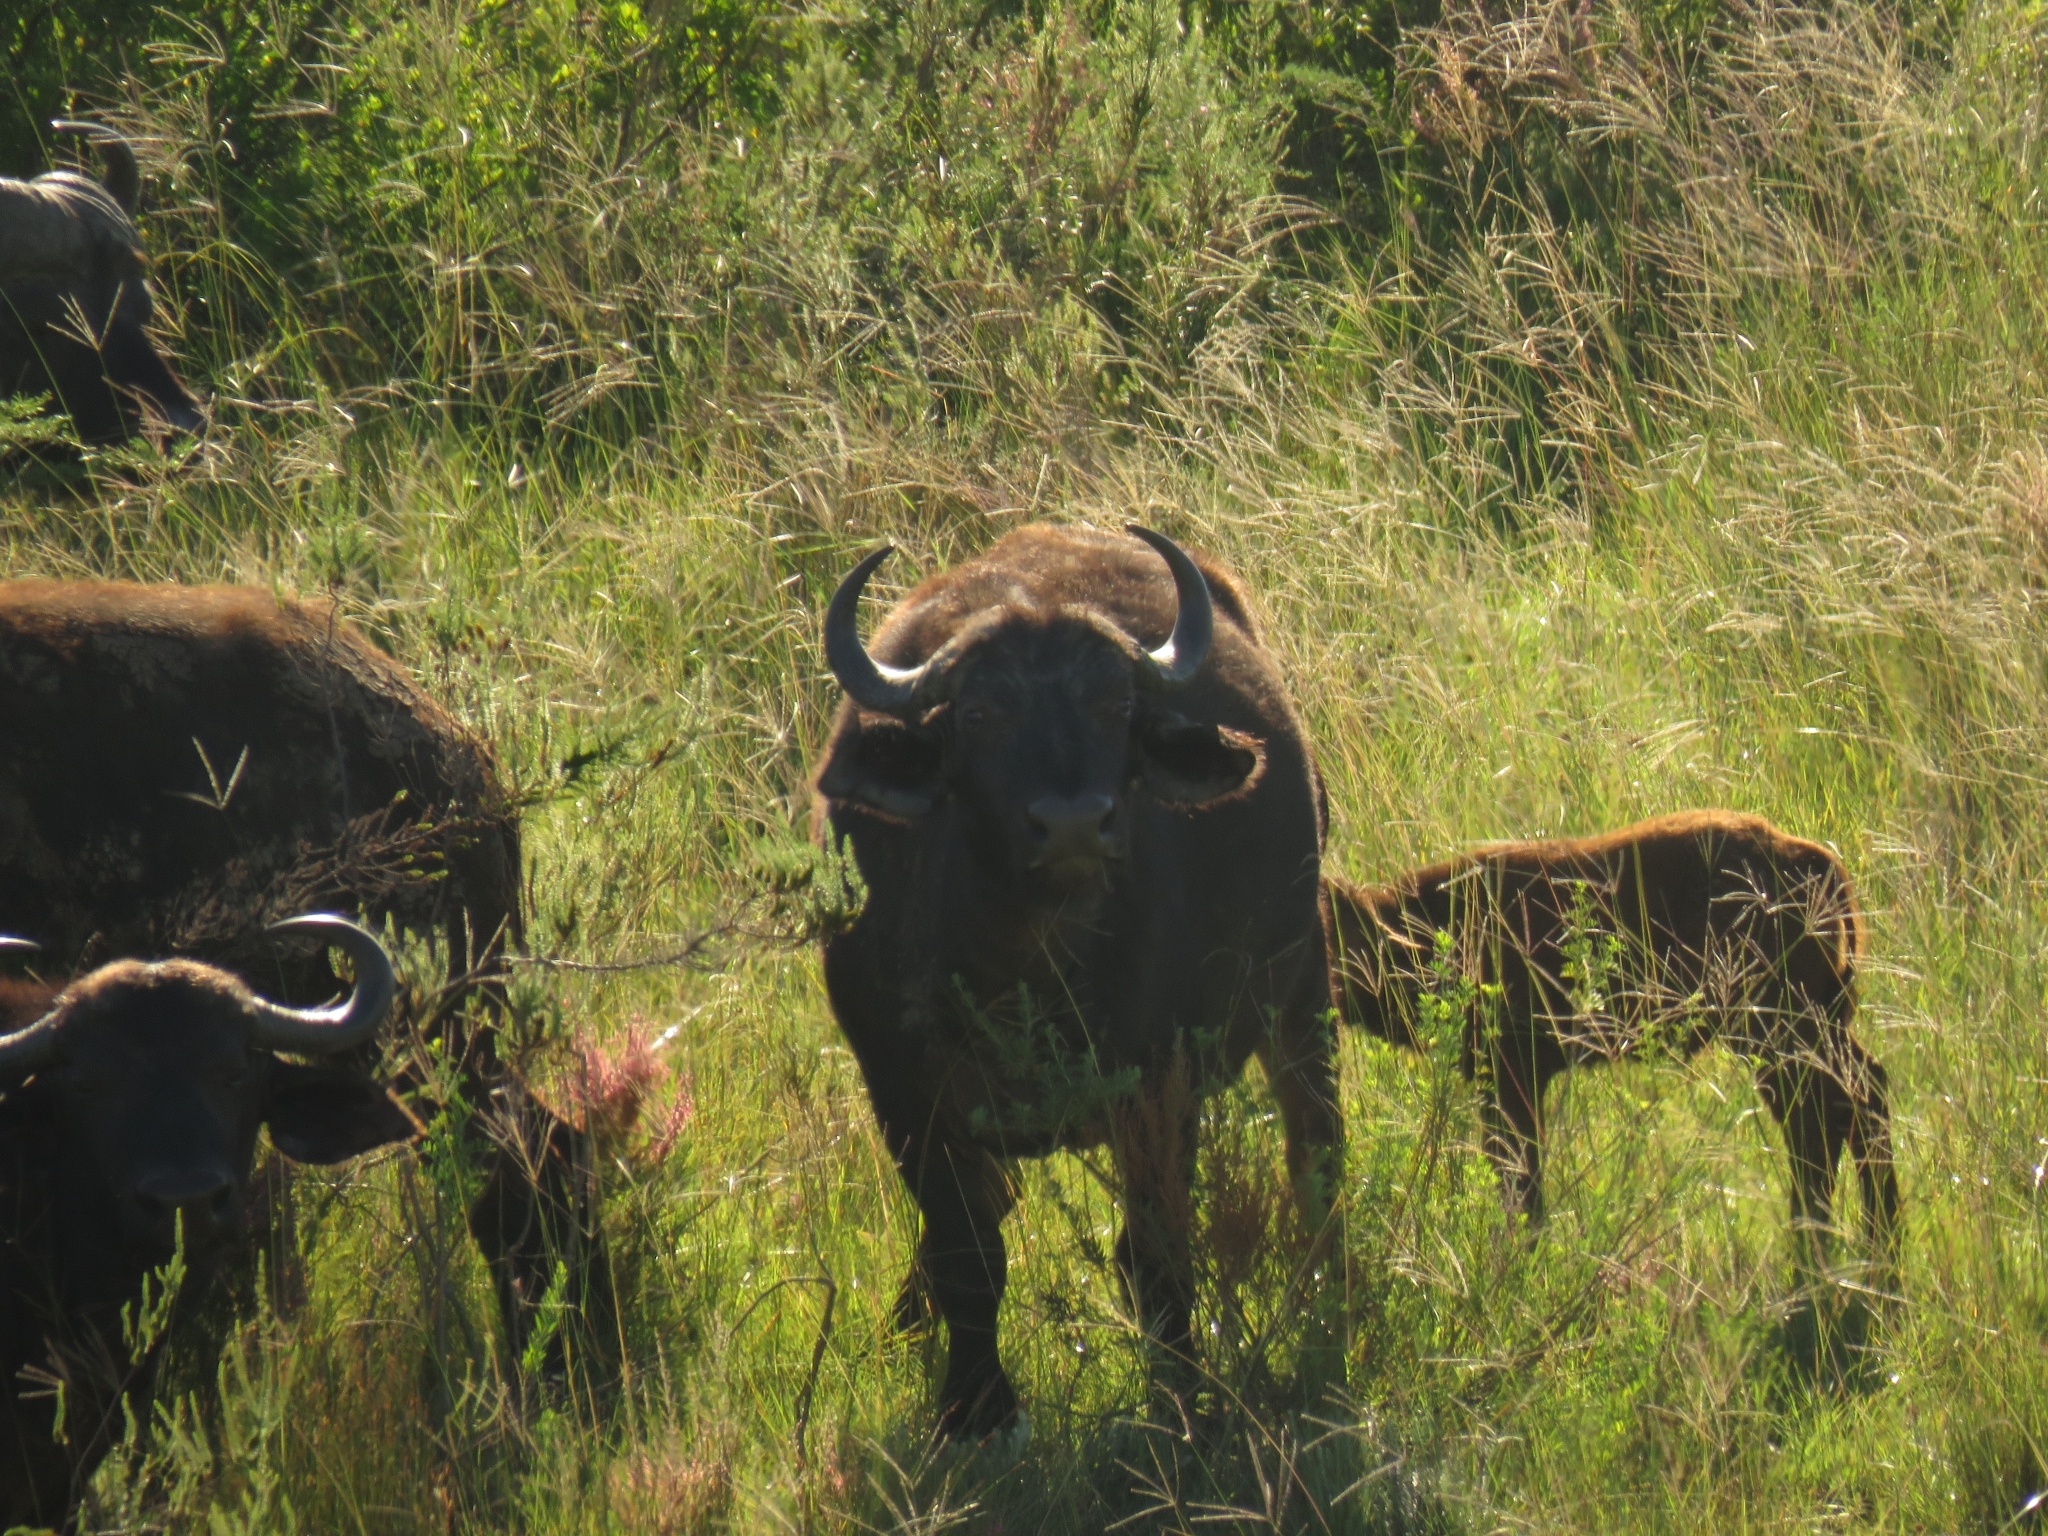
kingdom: Animalia
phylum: Chordata
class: Mammalia
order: Artiodactyla
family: Bovidae
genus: Syncerus
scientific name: Syncerus caffer
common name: African buffalo
